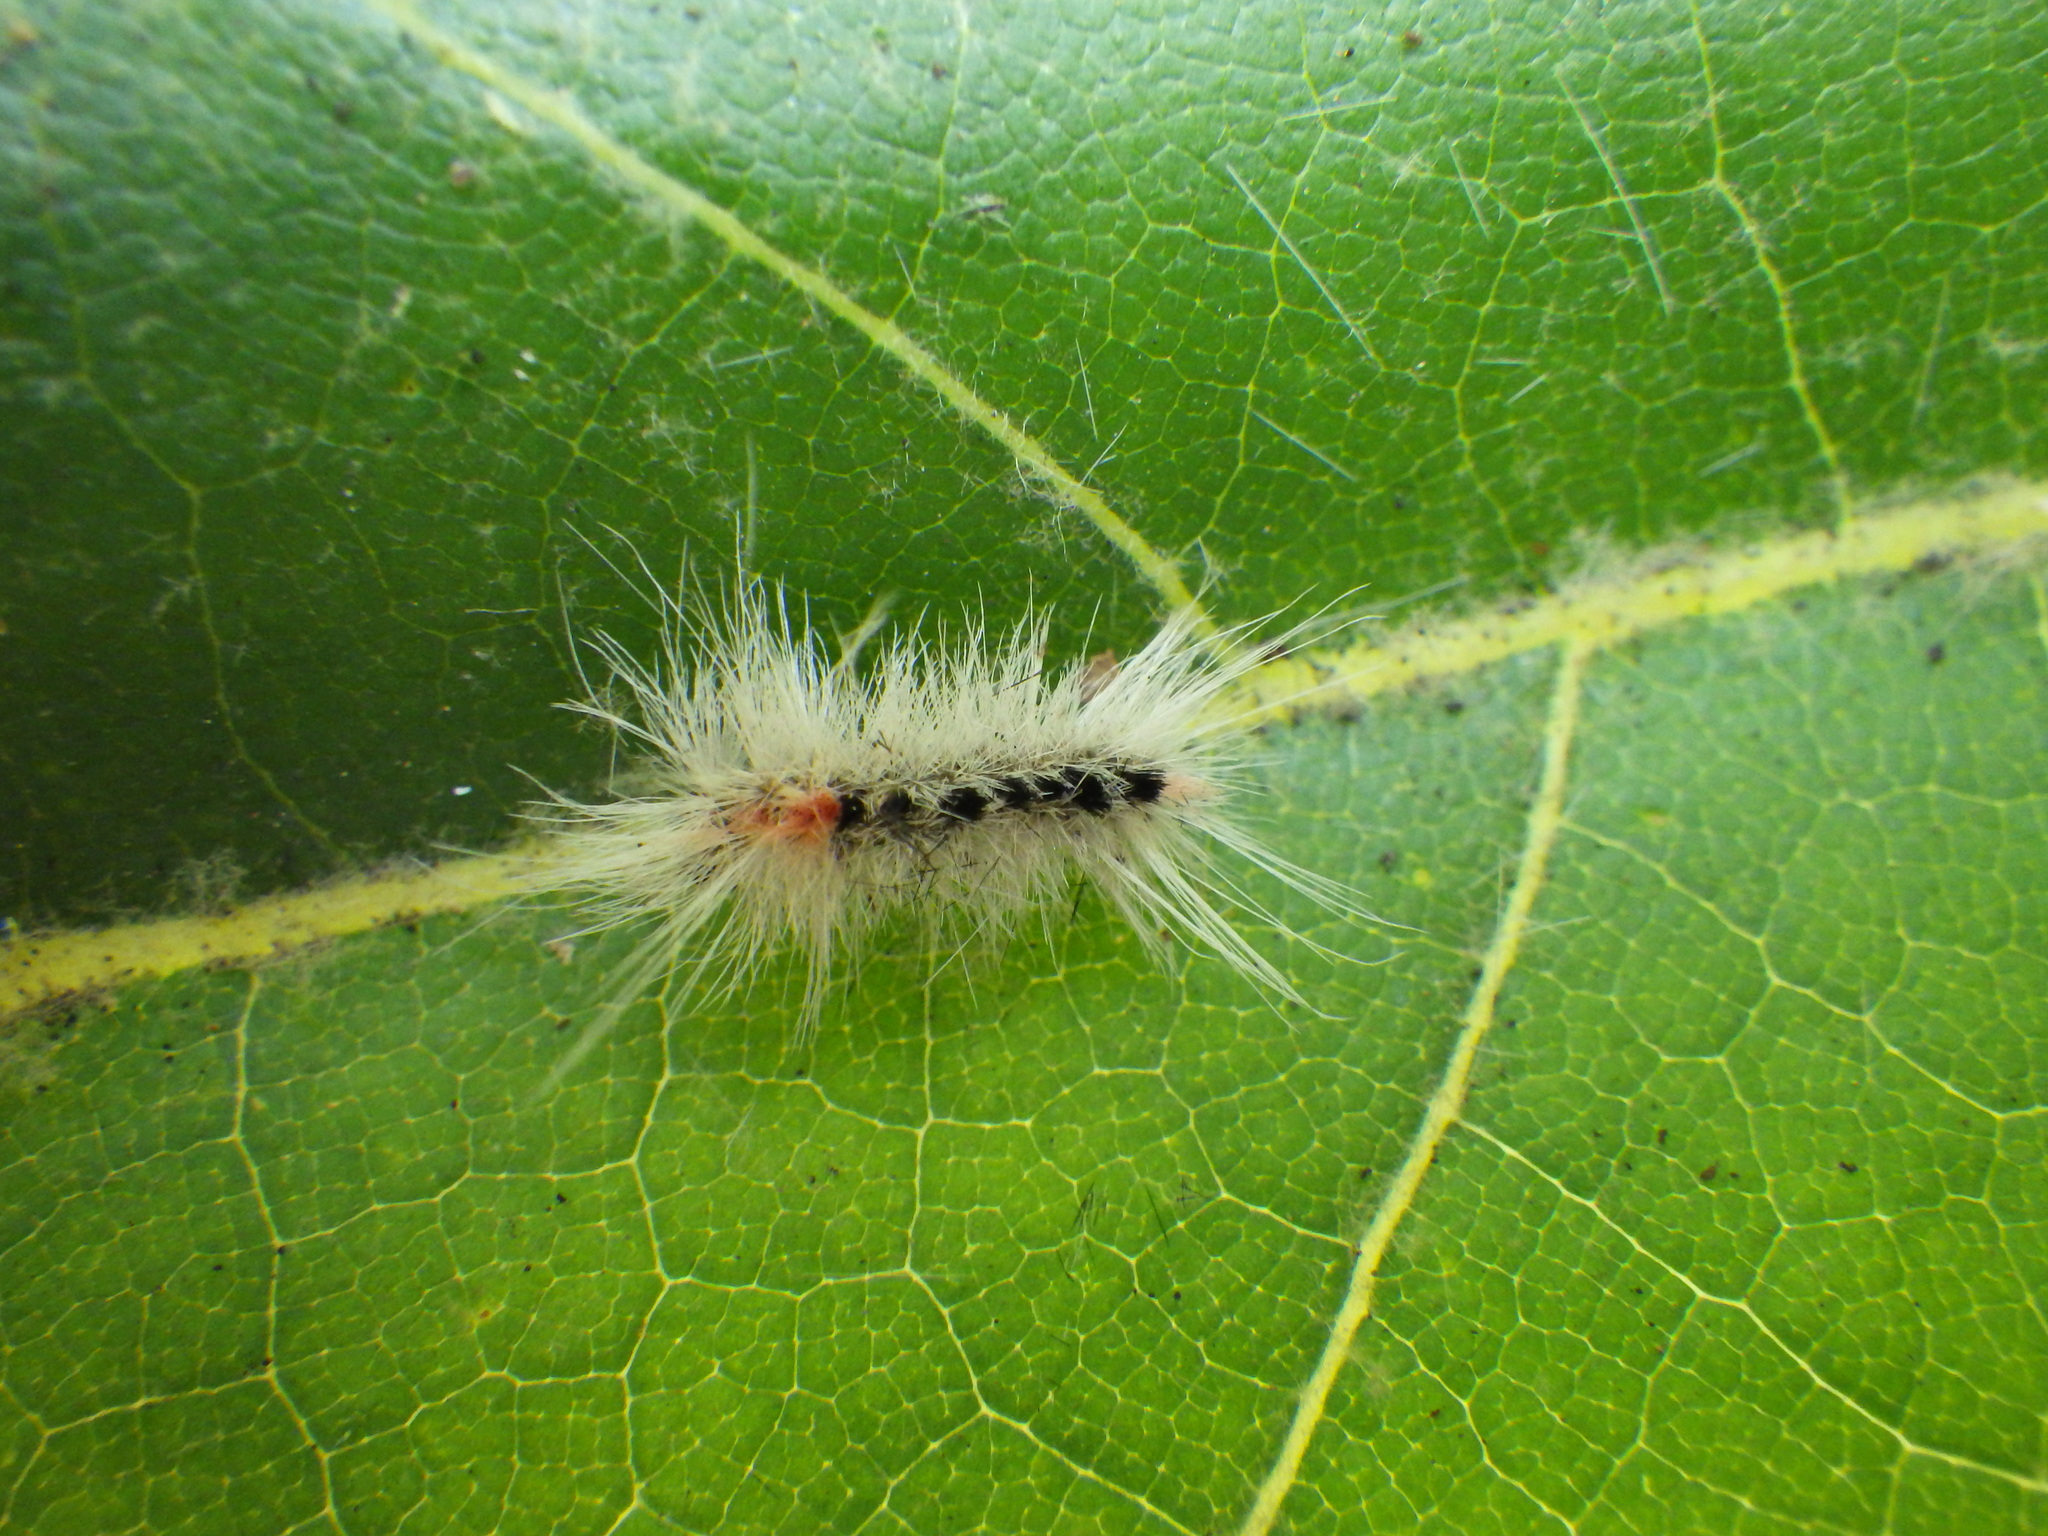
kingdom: Animalia
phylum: Arthropoda
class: Insecta
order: Lepidoptera
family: Erebidae
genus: Lophocampa
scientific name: Lophocampa maculata
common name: Spotted tussock moth
